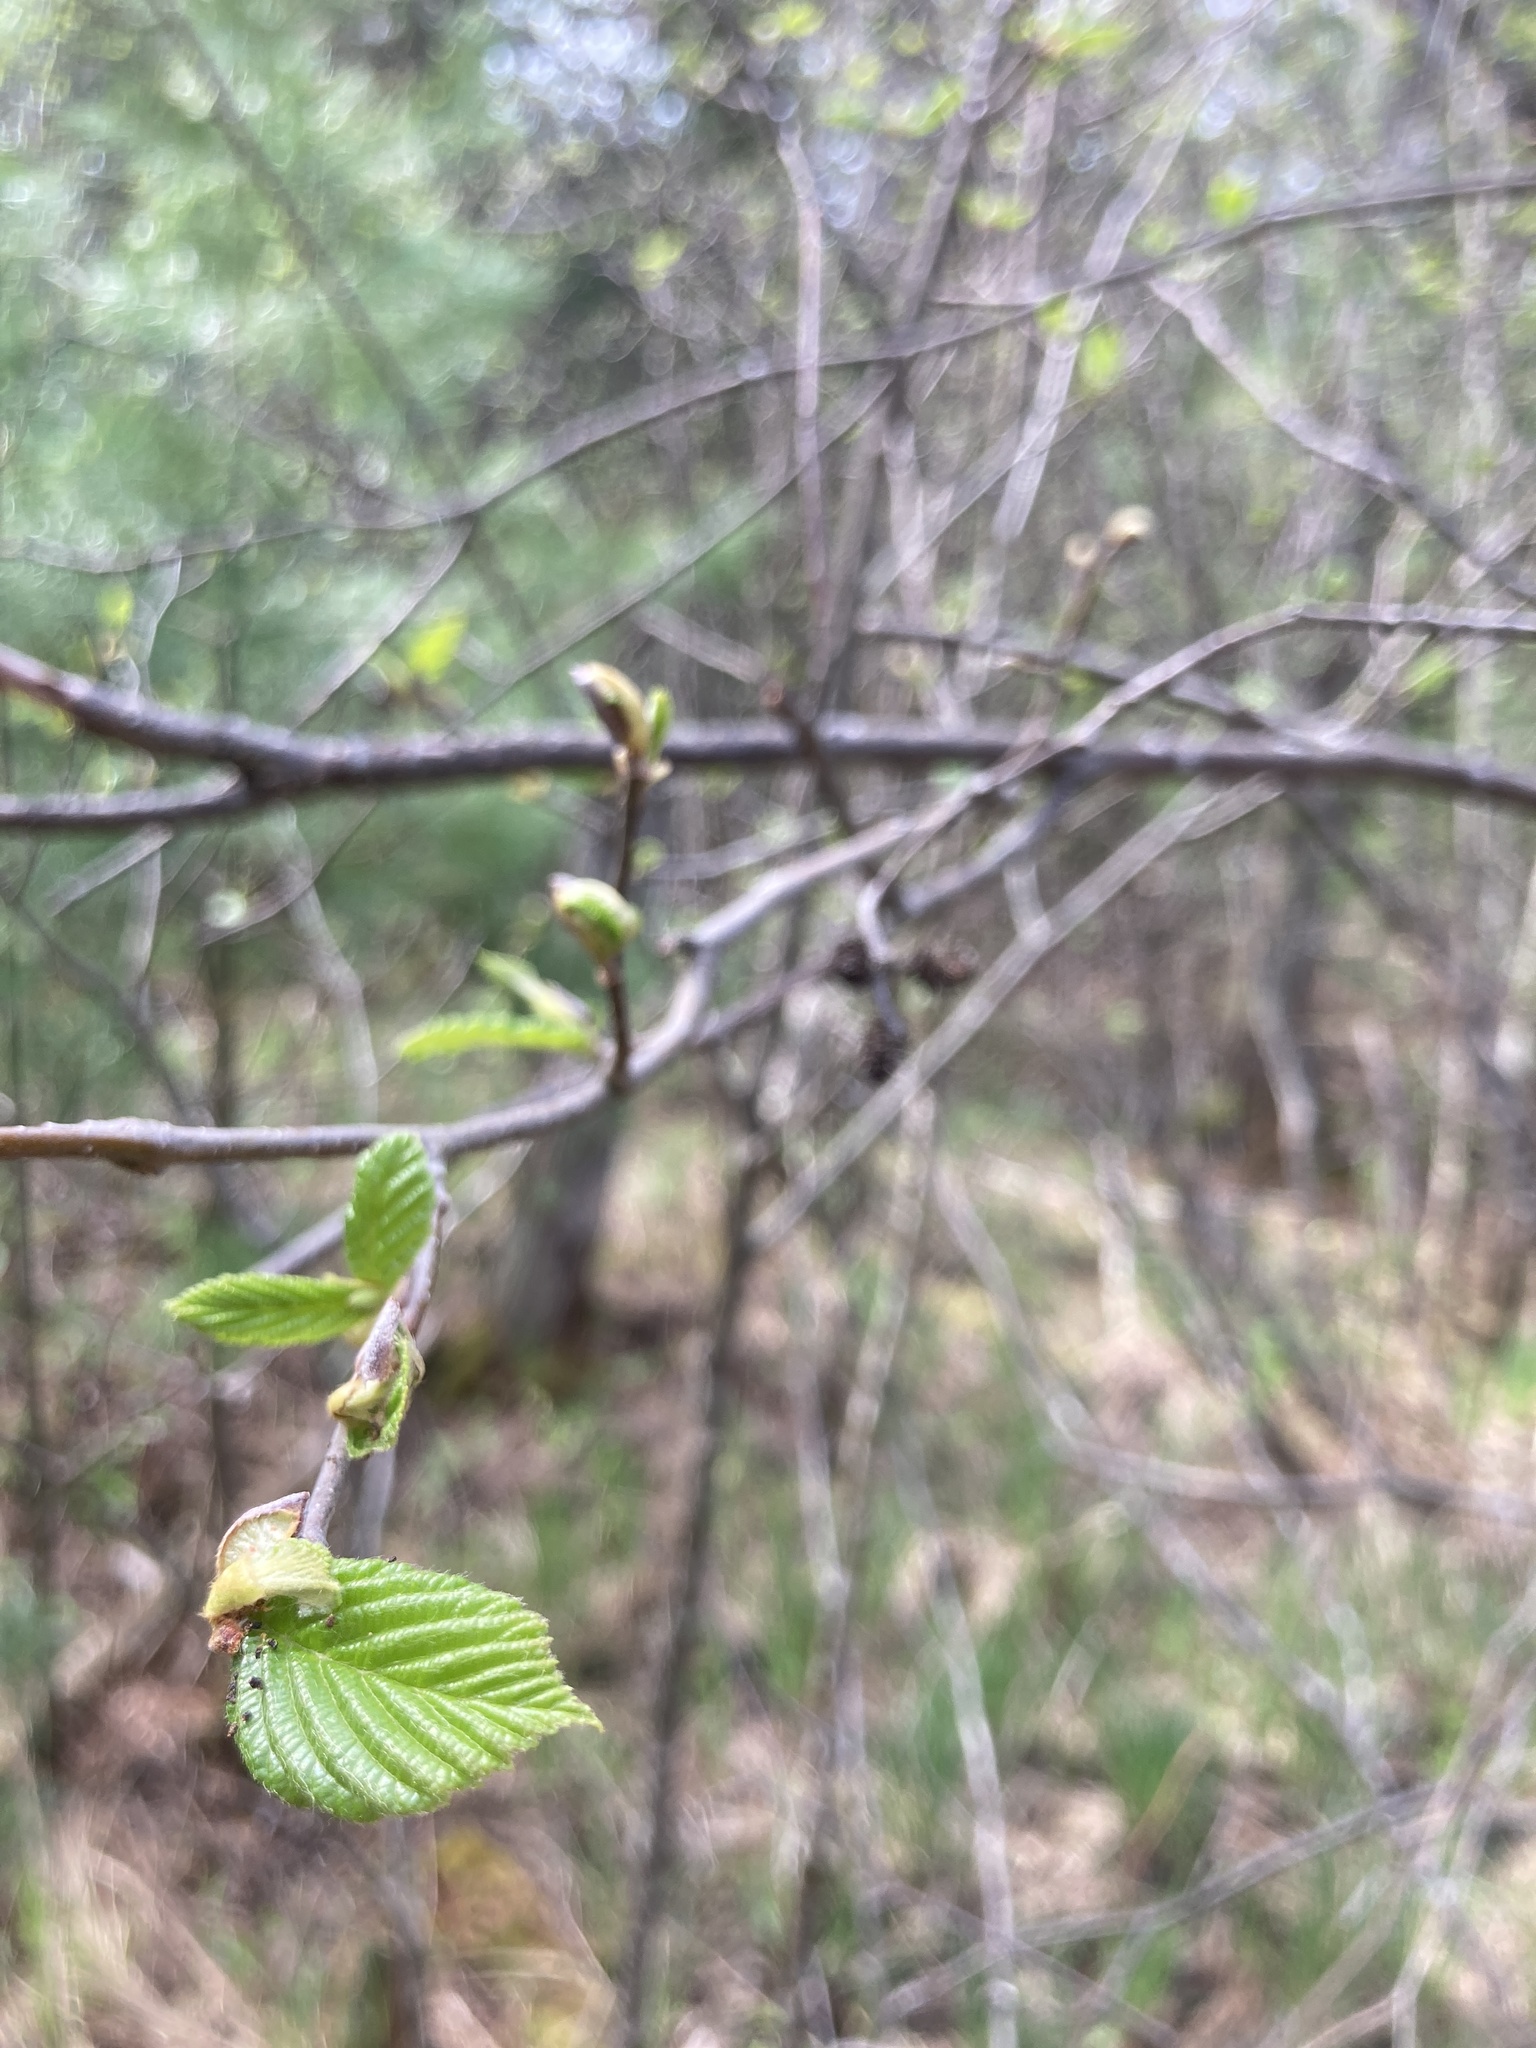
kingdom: Plantae
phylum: Tracheophyta
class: Magnoliopsida
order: Fagales
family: Betulaceae
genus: Alnus
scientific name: Alnus incana
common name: Grey alder
